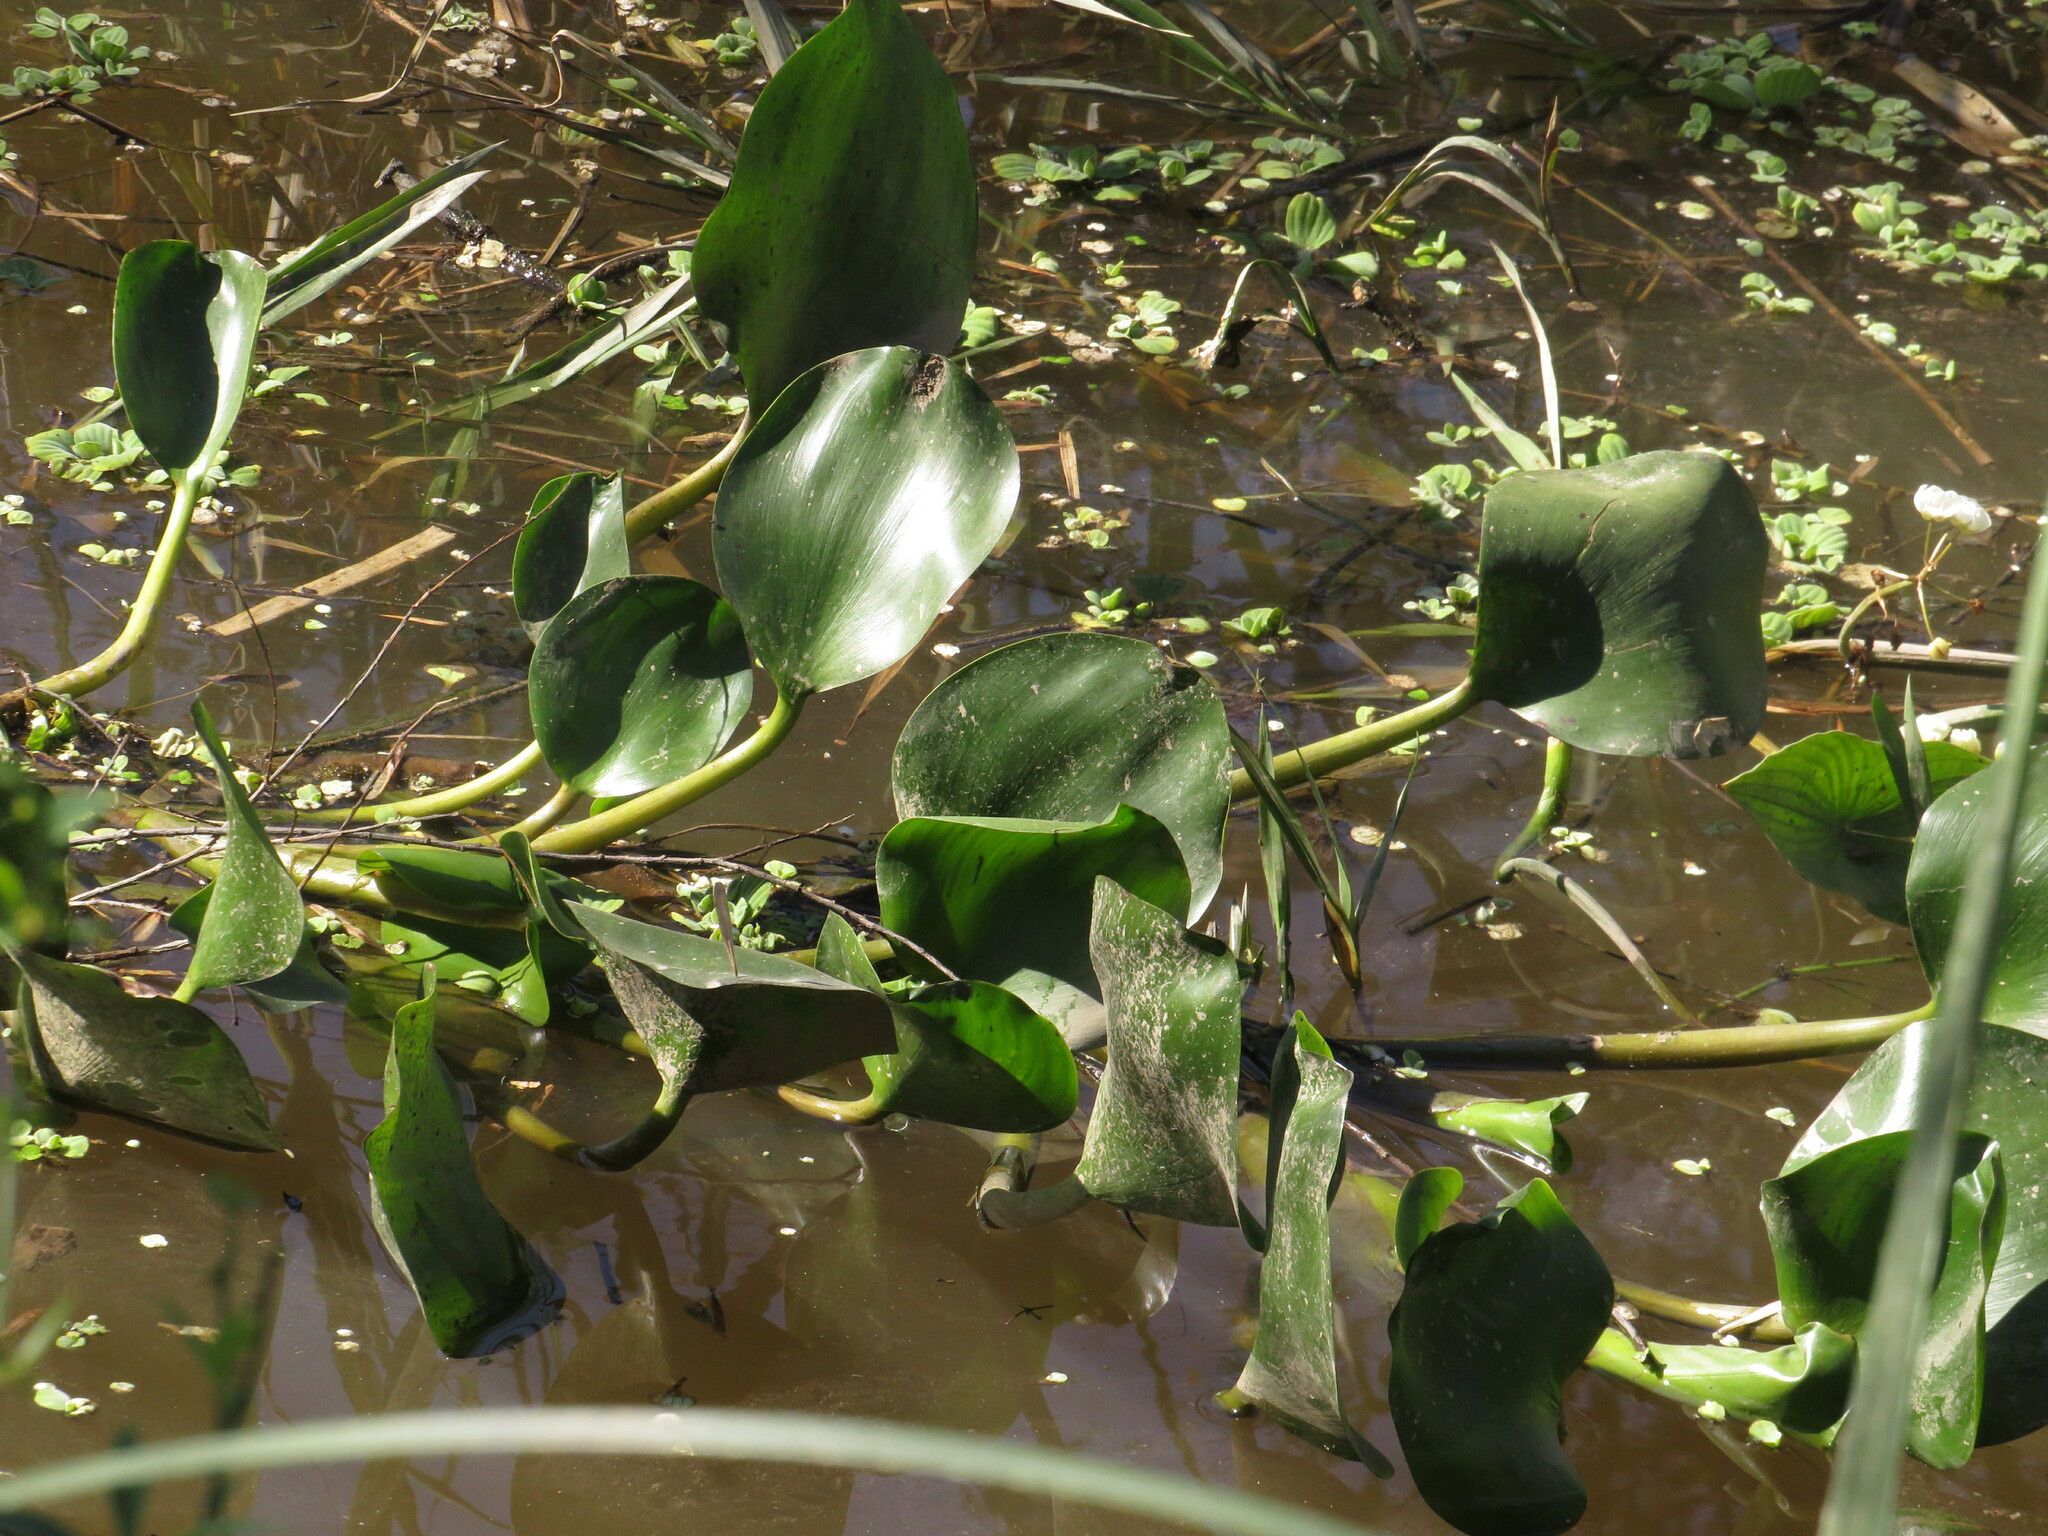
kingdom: Plantae
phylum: Tracheophyta
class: Liliopsida
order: Commelinales
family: Pontederiaceae
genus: Pontederia
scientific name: Pontederia azurea
